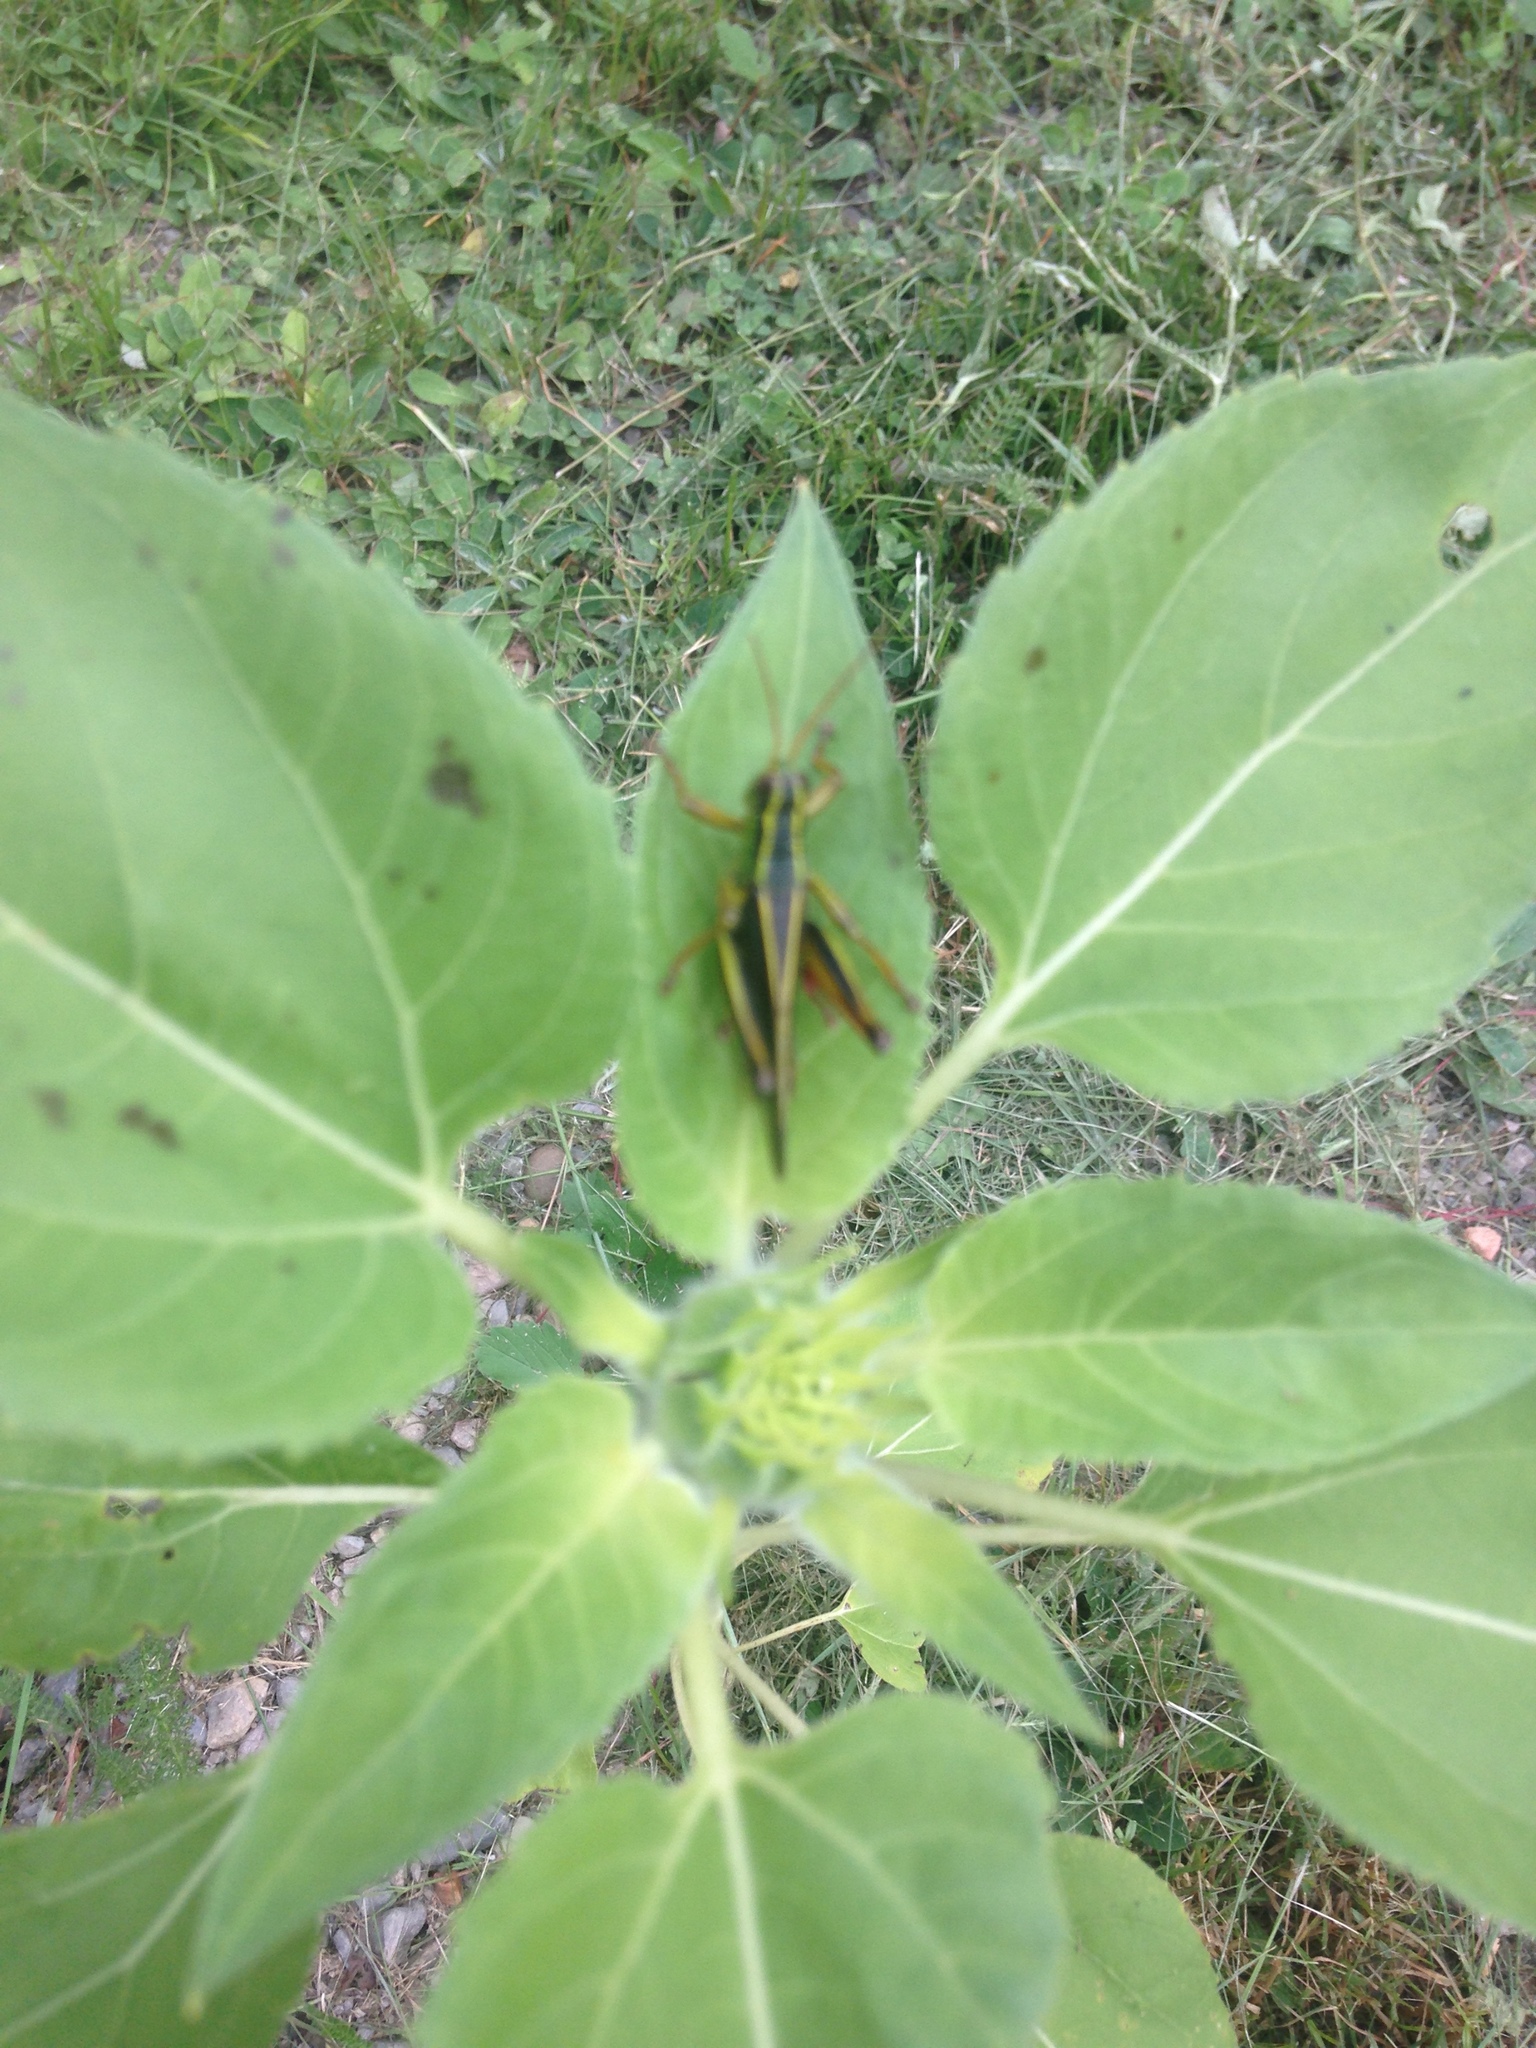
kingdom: Animalia
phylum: Arthropoda
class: Insecta
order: Orthoptera
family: Acrididae
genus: Melanoplus
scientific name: Melanoplus bivittatus
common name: Two-striped grasshopper
